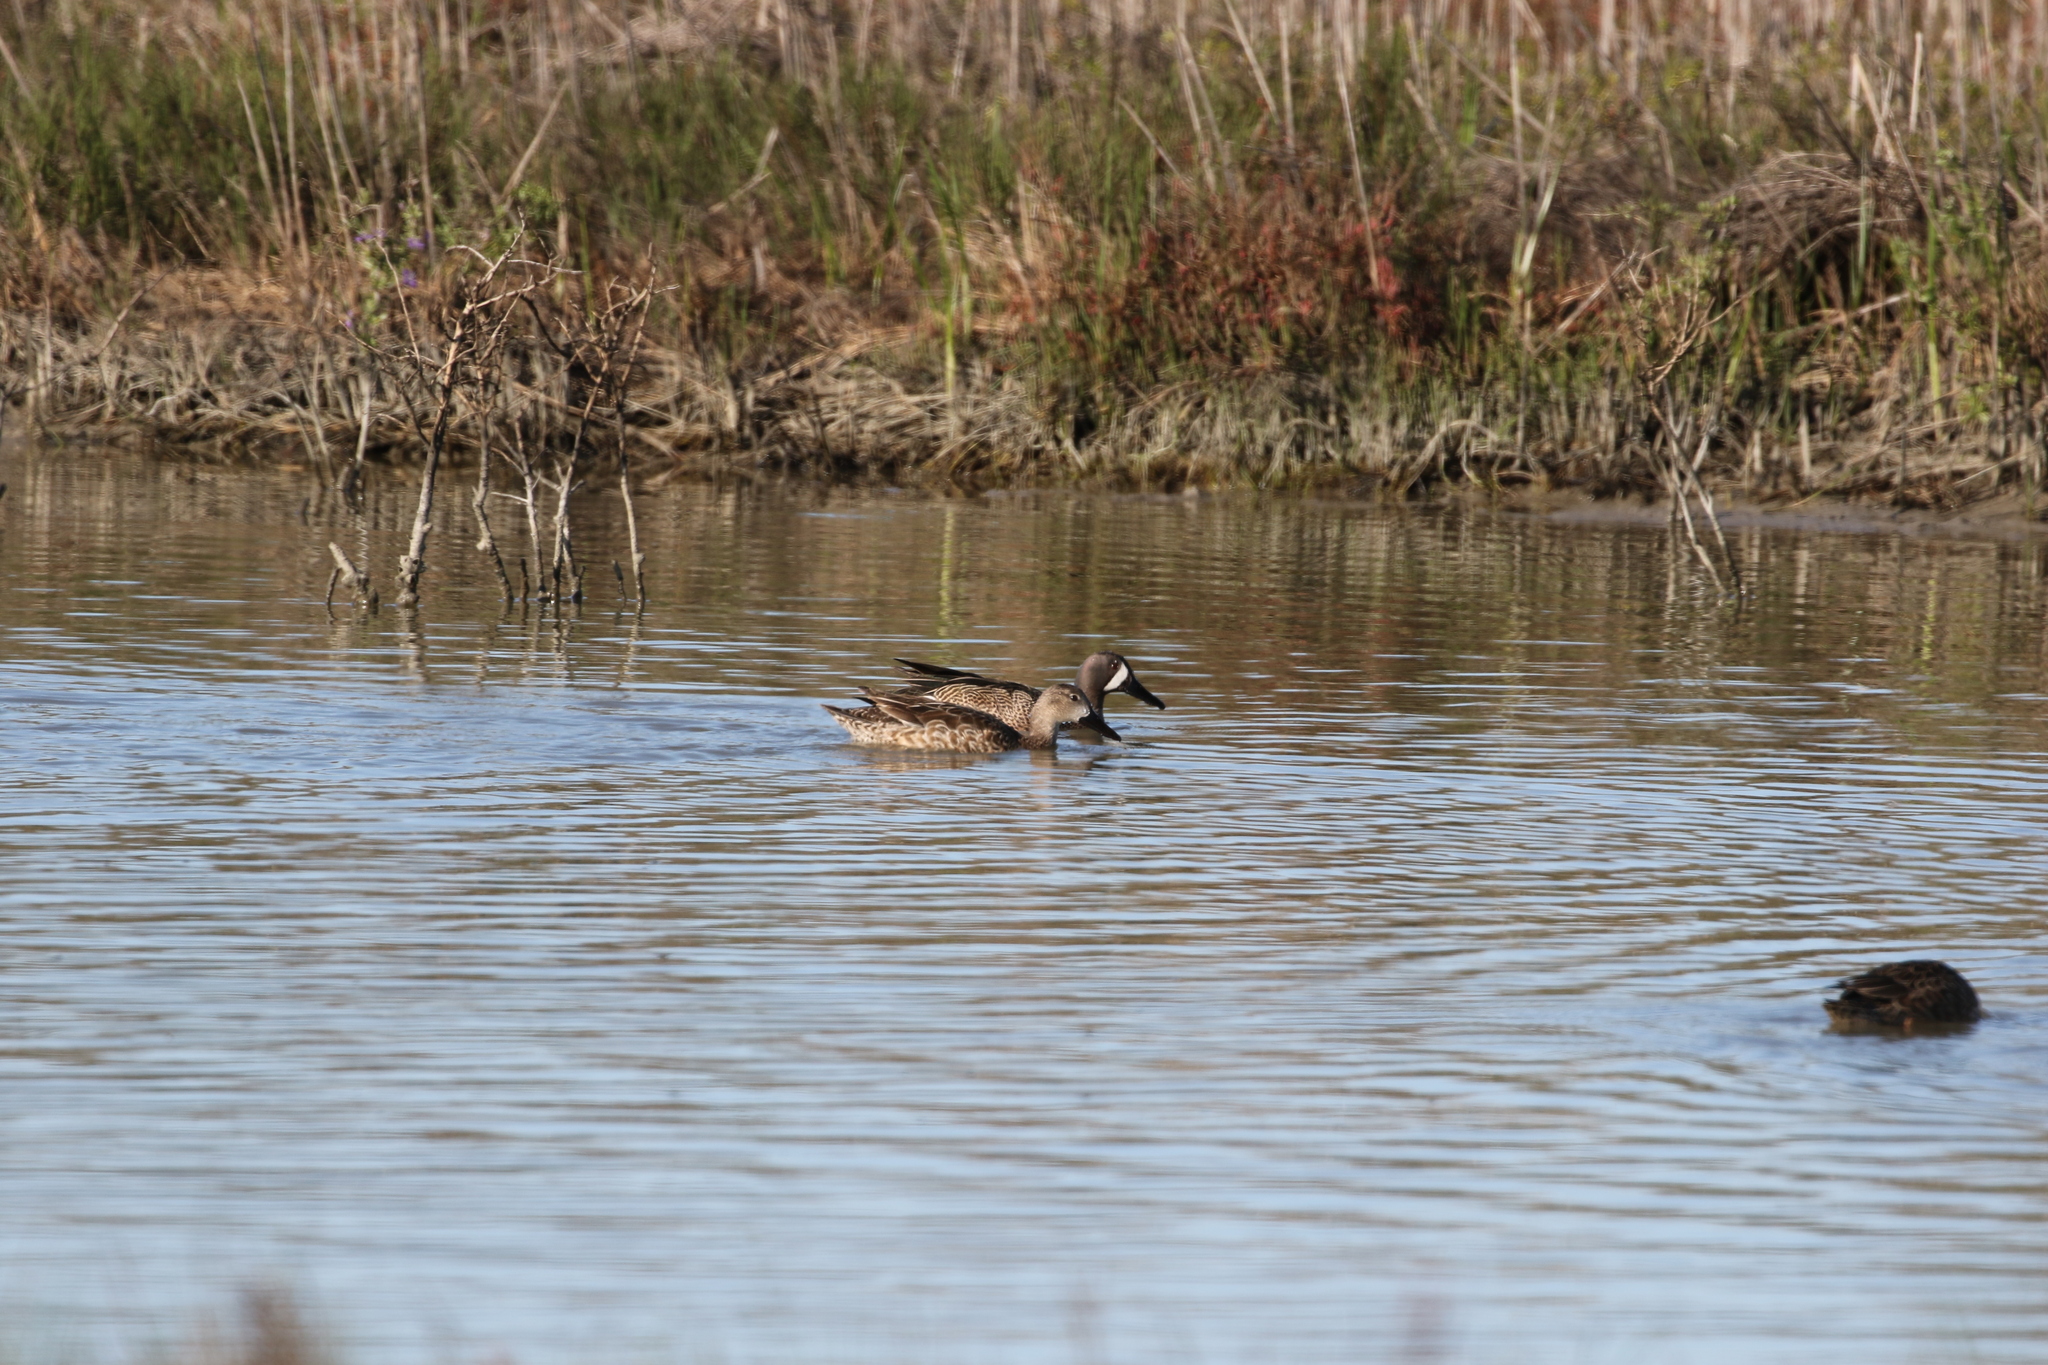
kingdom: Animalia
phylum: Chordata
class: Aves
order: Anseriformes
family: Anatidae
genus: Spatula
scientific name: Spatula discors
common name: Blue-winged teal
